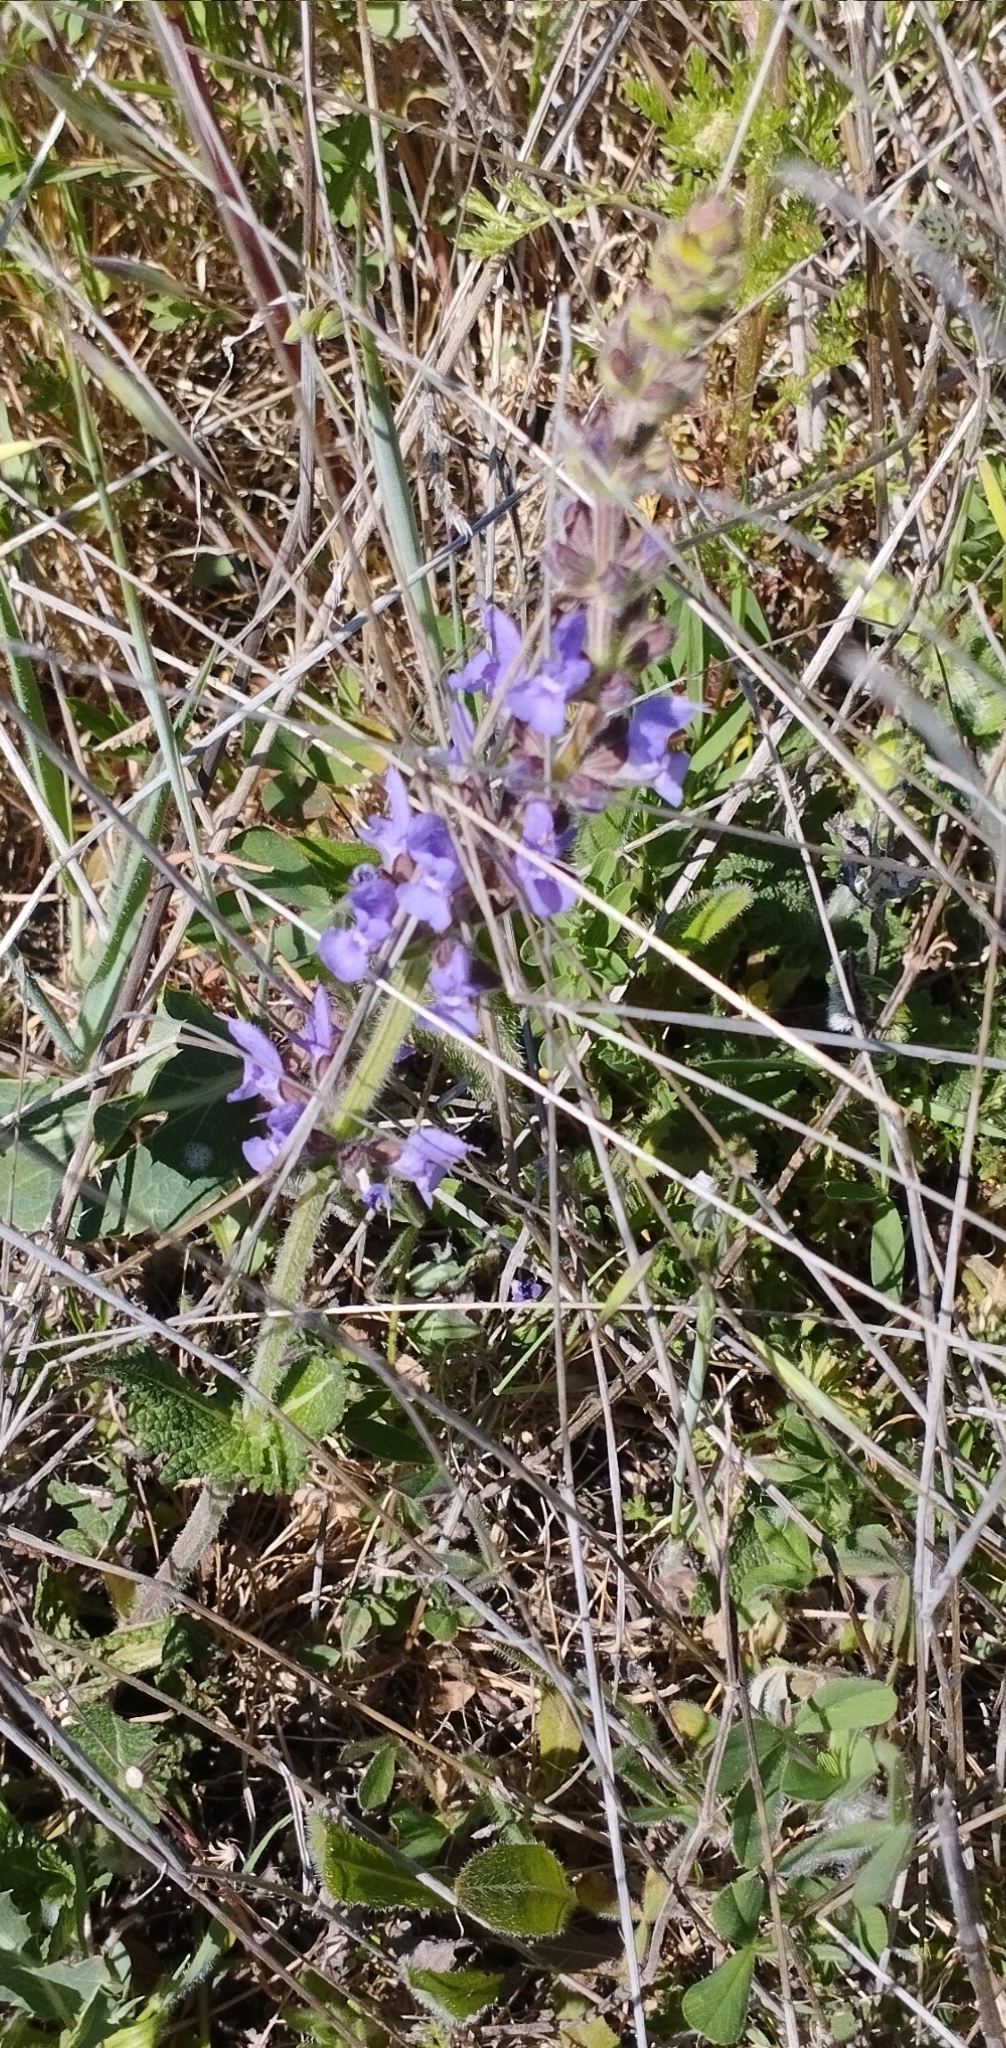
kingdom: Plantae
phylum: Tracheophyta
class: Magnoliopsida
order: Lamiales
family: Lamiaceae
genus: Salvia
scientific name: Salvia verbenaca
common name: Wild clary
